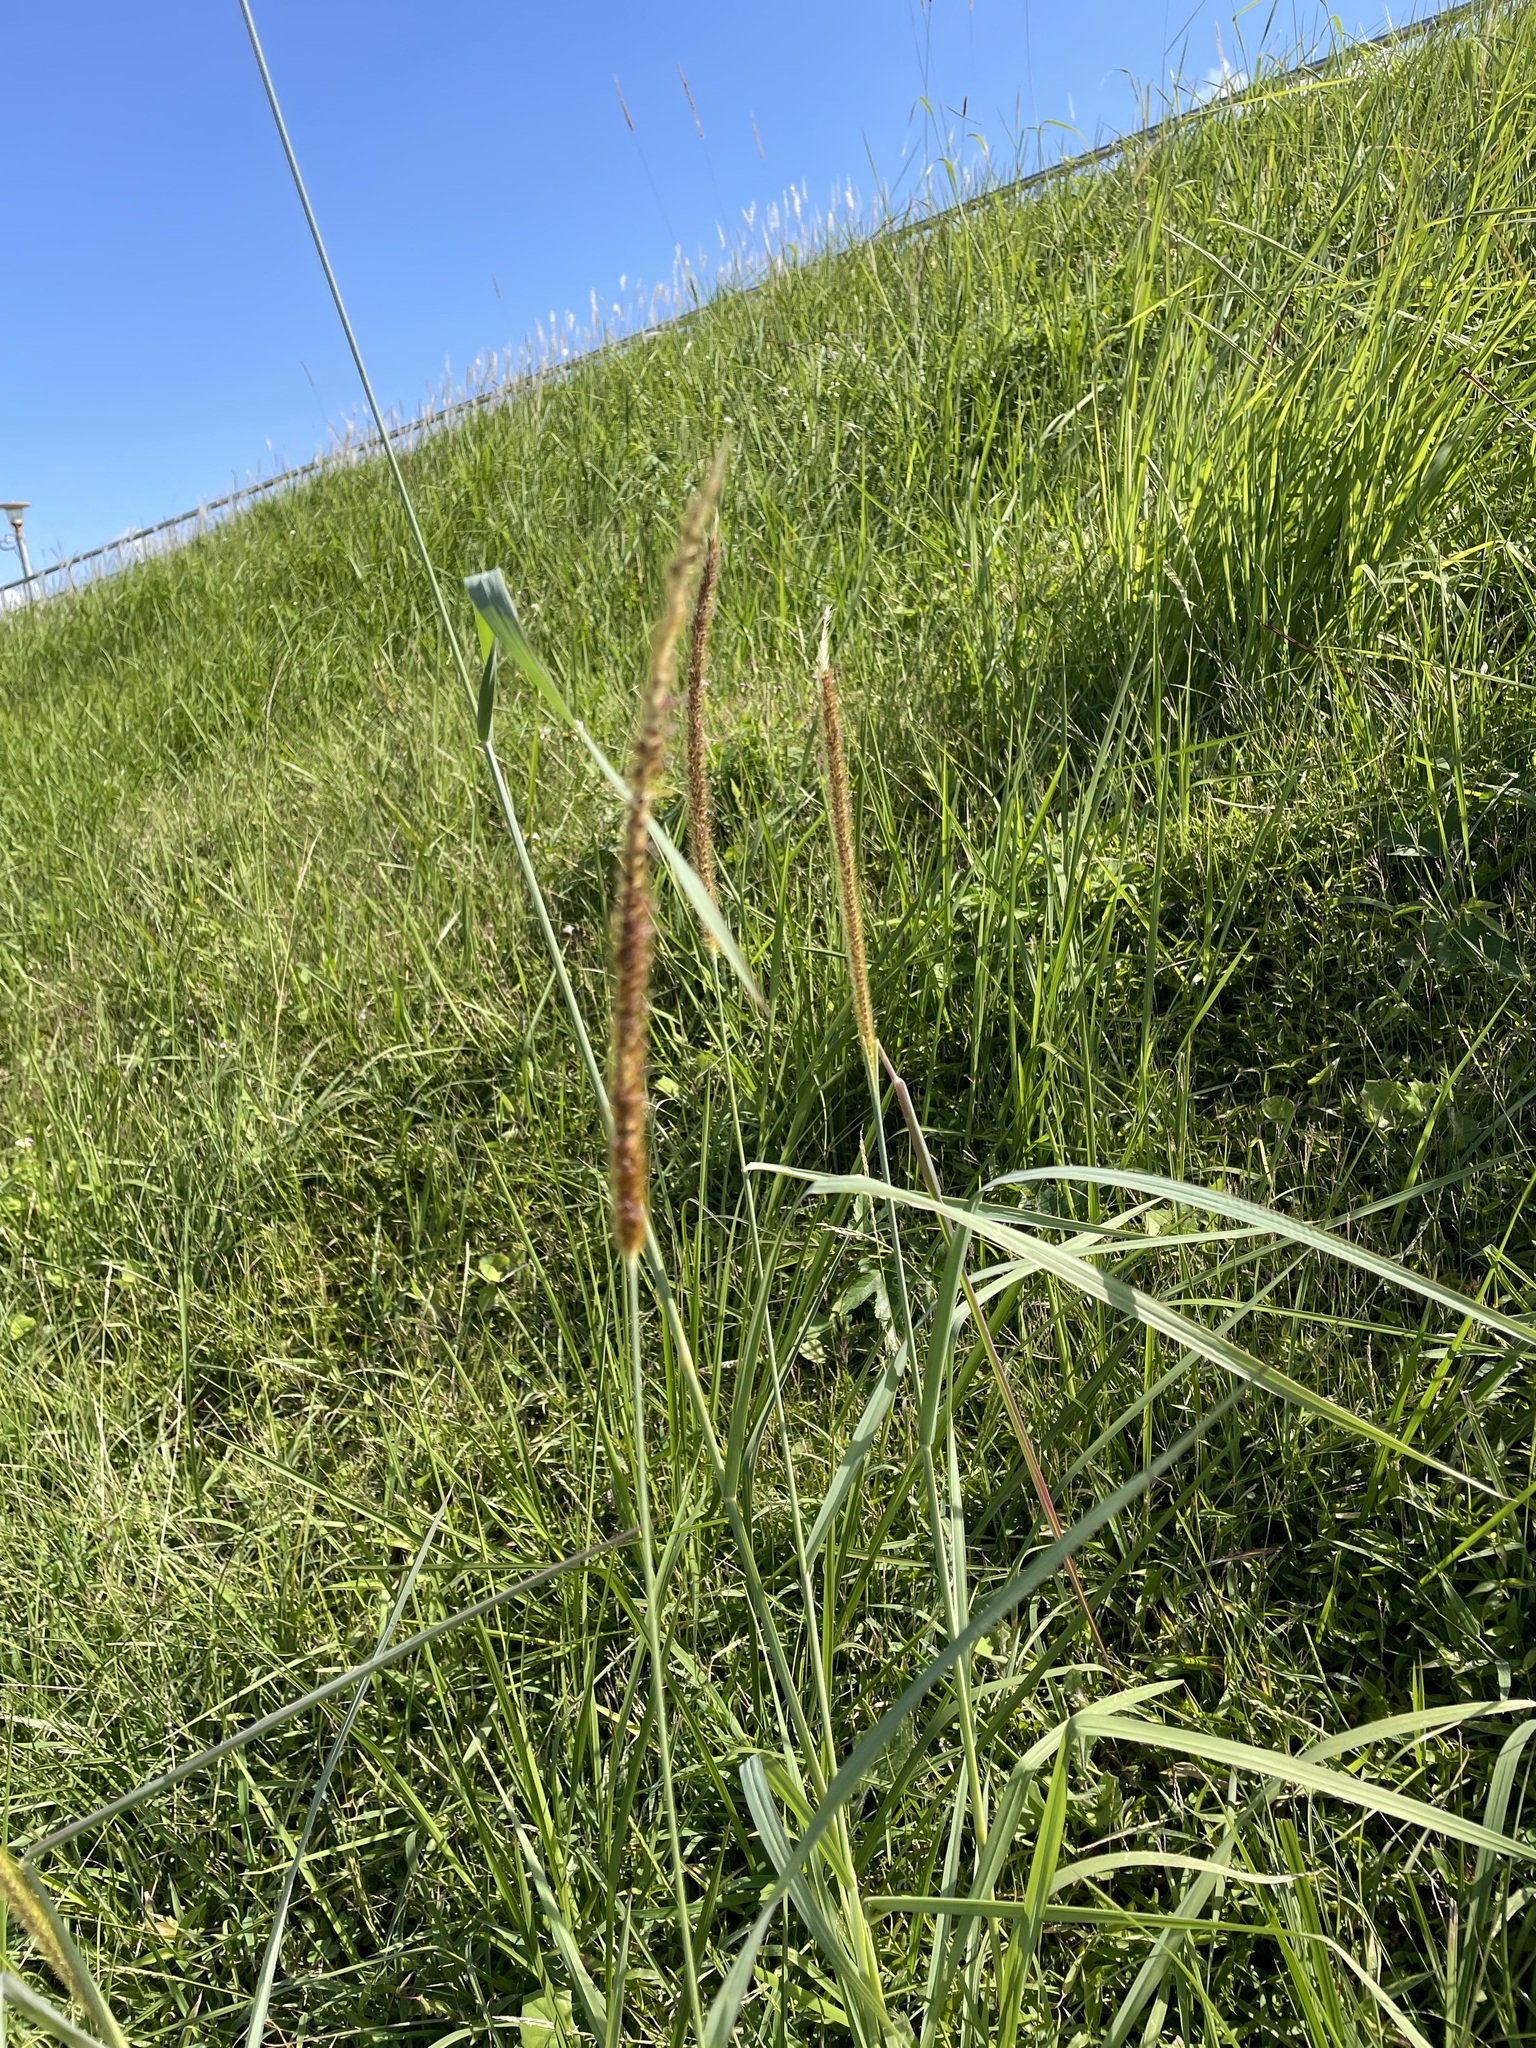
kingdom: Plantae
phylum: Tracheophyta
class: Liliopsida
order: Poales
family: Poaceae
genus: Setaria
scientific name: Setaria sphacelata
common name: African bristlegrass
